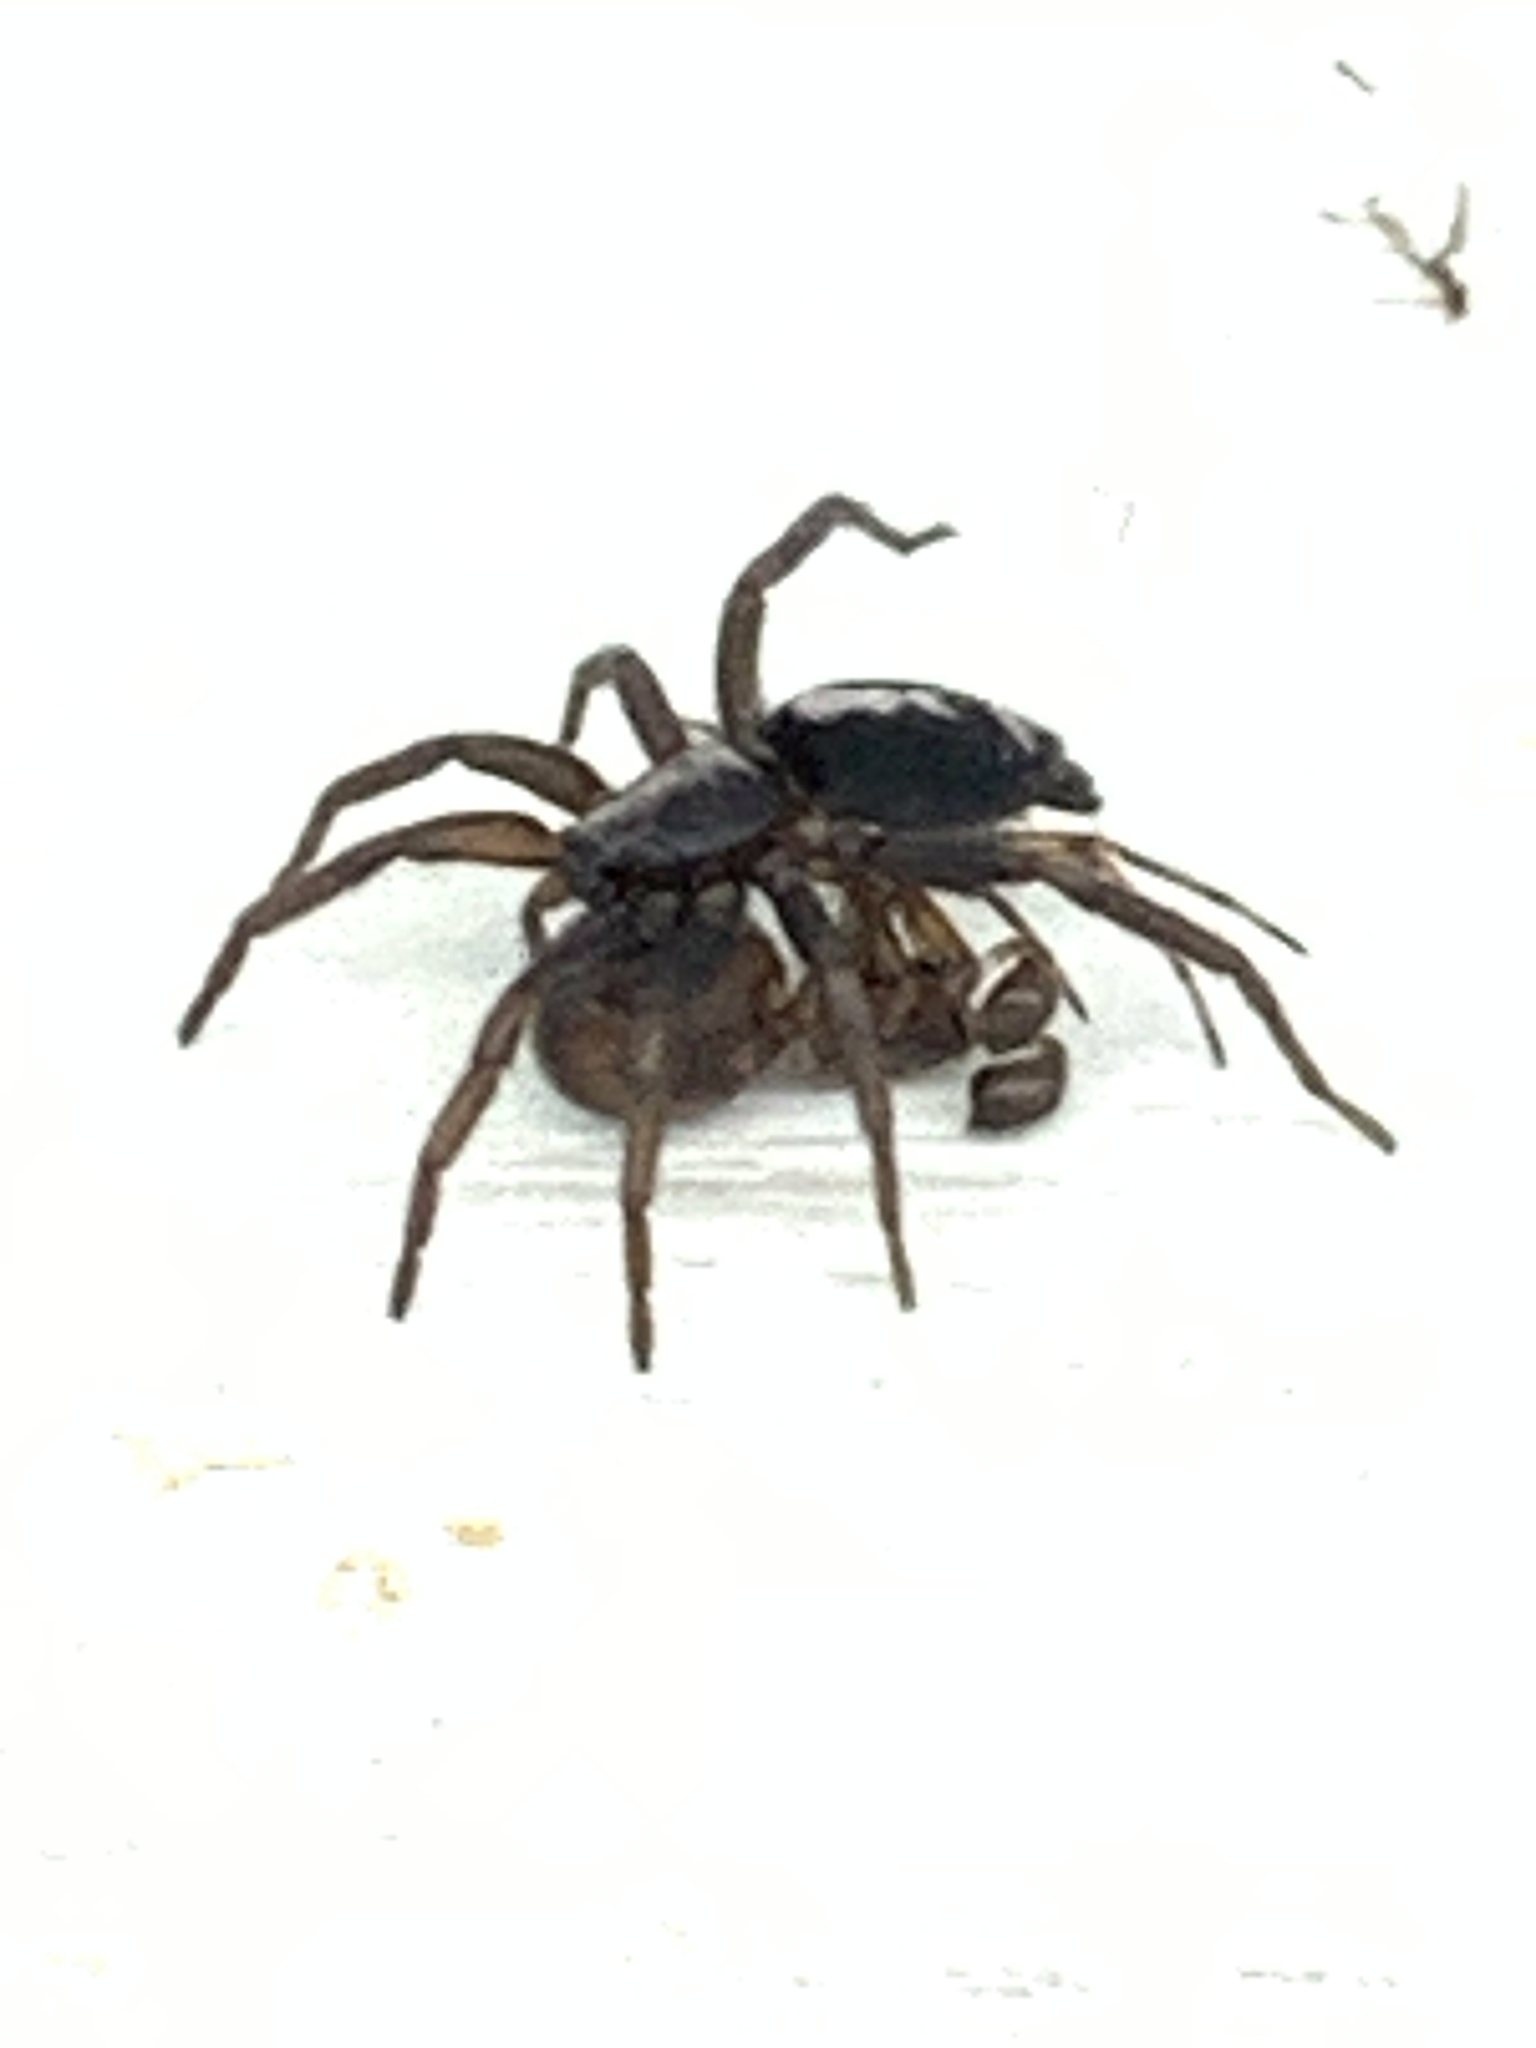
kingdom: Animalia
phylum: Arthropoda
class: Arachnida
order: Araneae
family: Gnaphosidae
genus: Herpyllus
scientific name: Herpyllus ecclesiasticus
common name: Eastern parson spider
